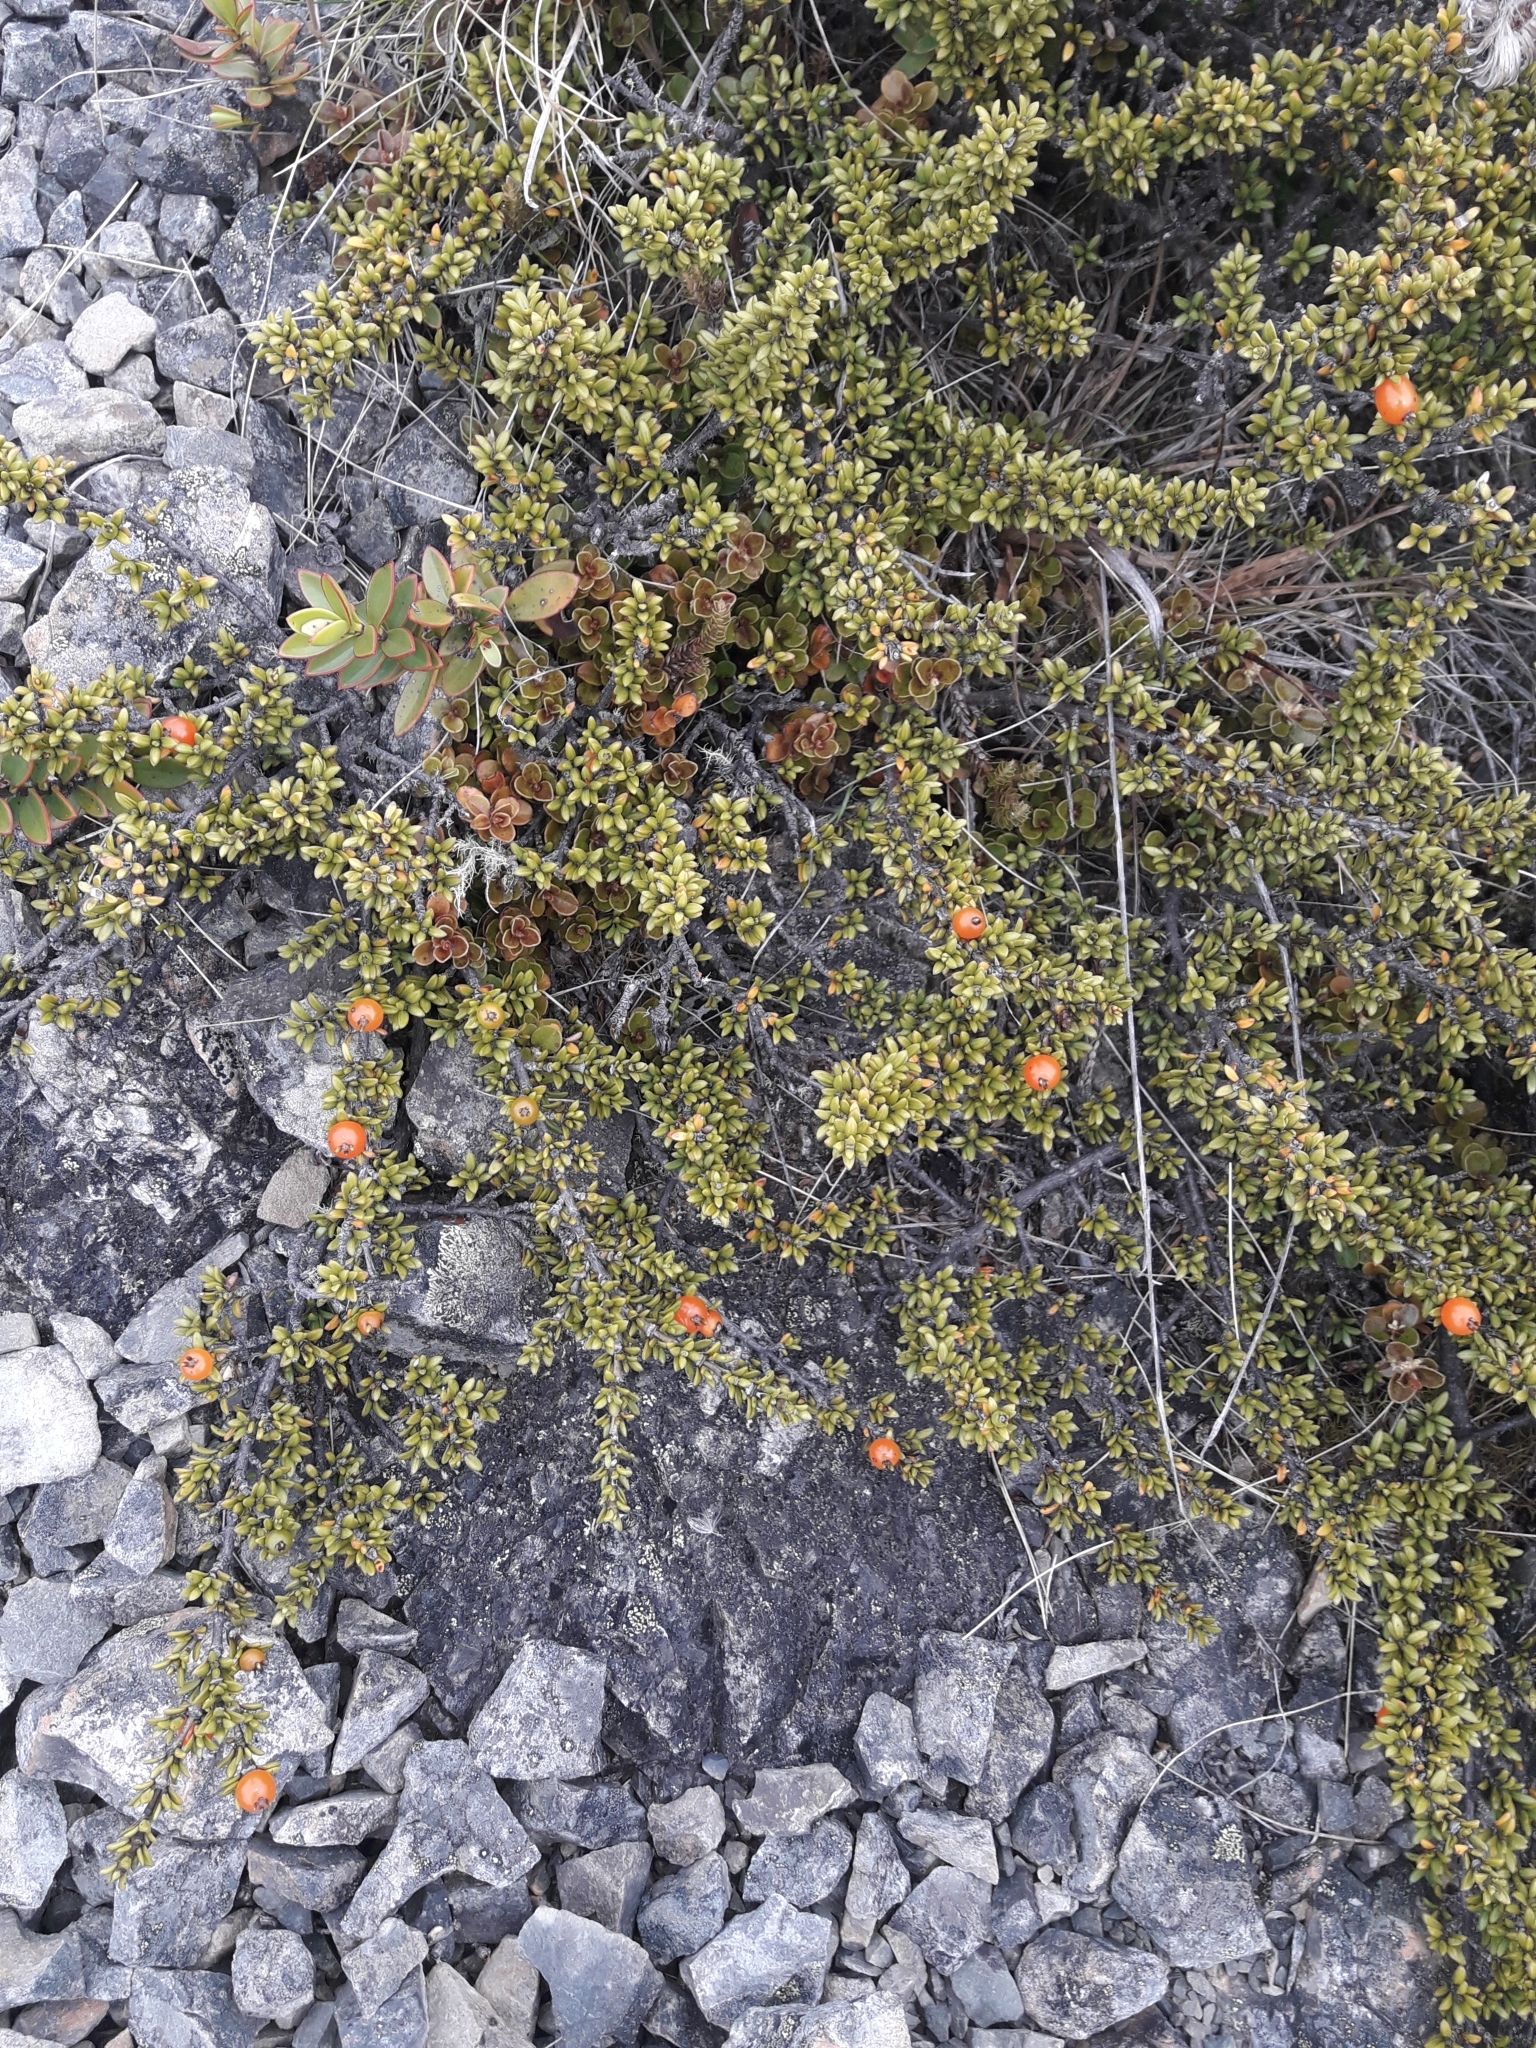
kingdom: Plantae
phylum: Tracheophyta
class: Magnoliopsida
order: Gentianales
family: Rubiaceae
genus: Coprosma
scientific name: Coprosma fowerakeri
